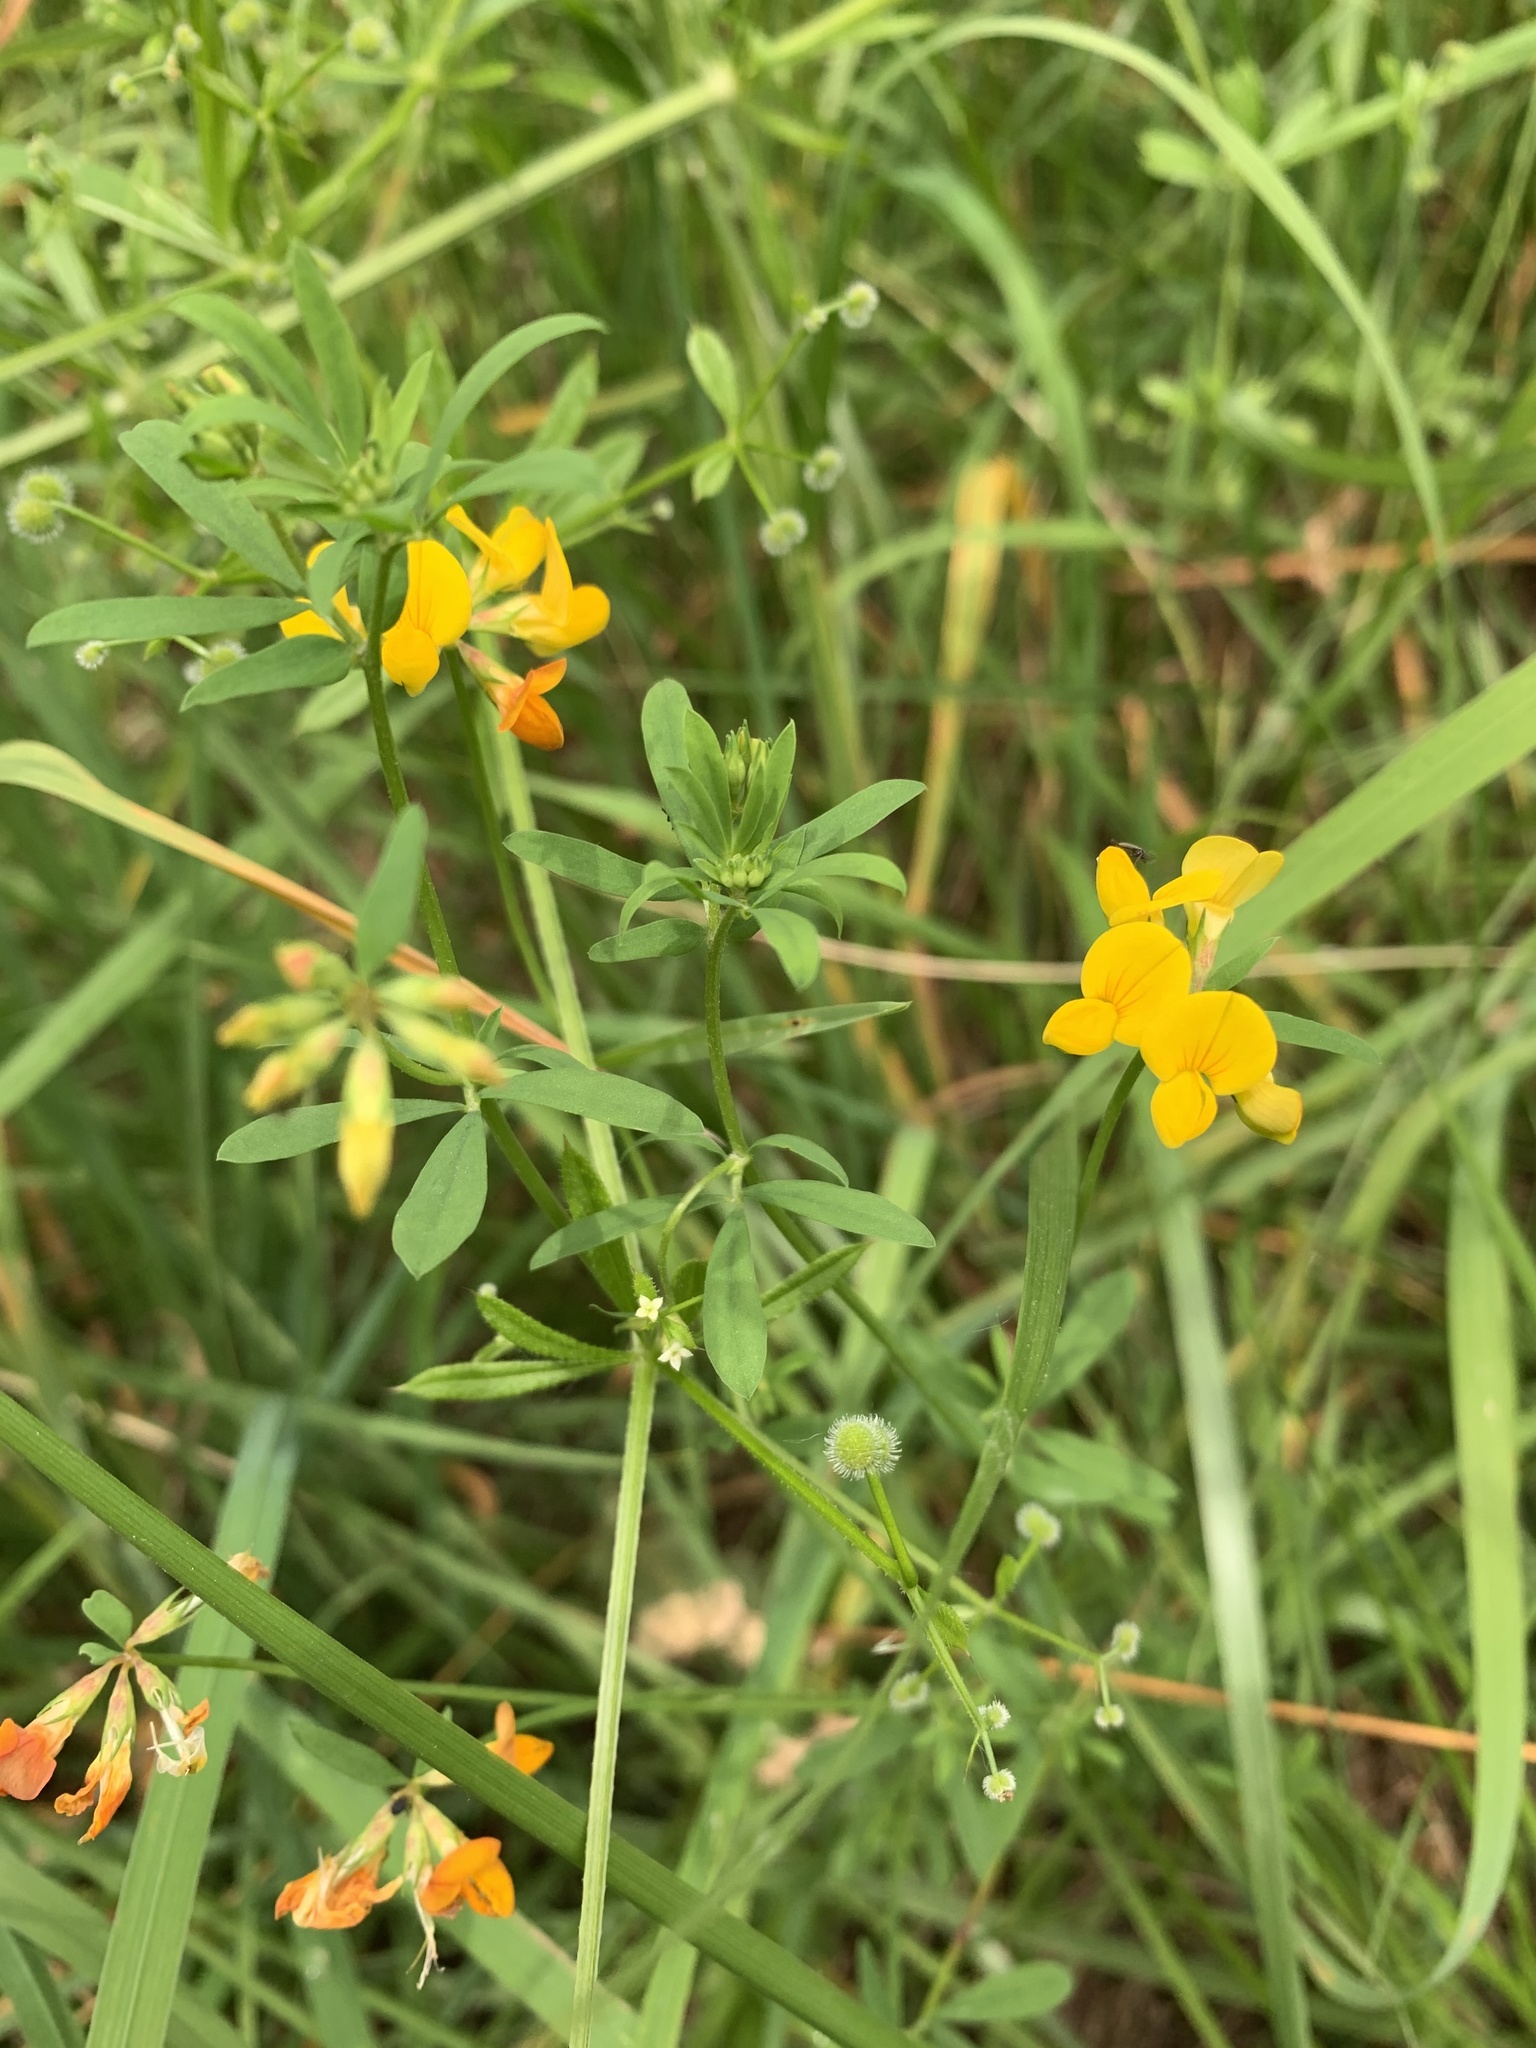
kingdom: Plantae
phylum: Tracheophyta
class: Magnoliopsida
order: Fabales
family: Fabaceae
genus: Lotus
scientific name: Lotus corniculatus
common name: Common bird's-foot-trefoil
